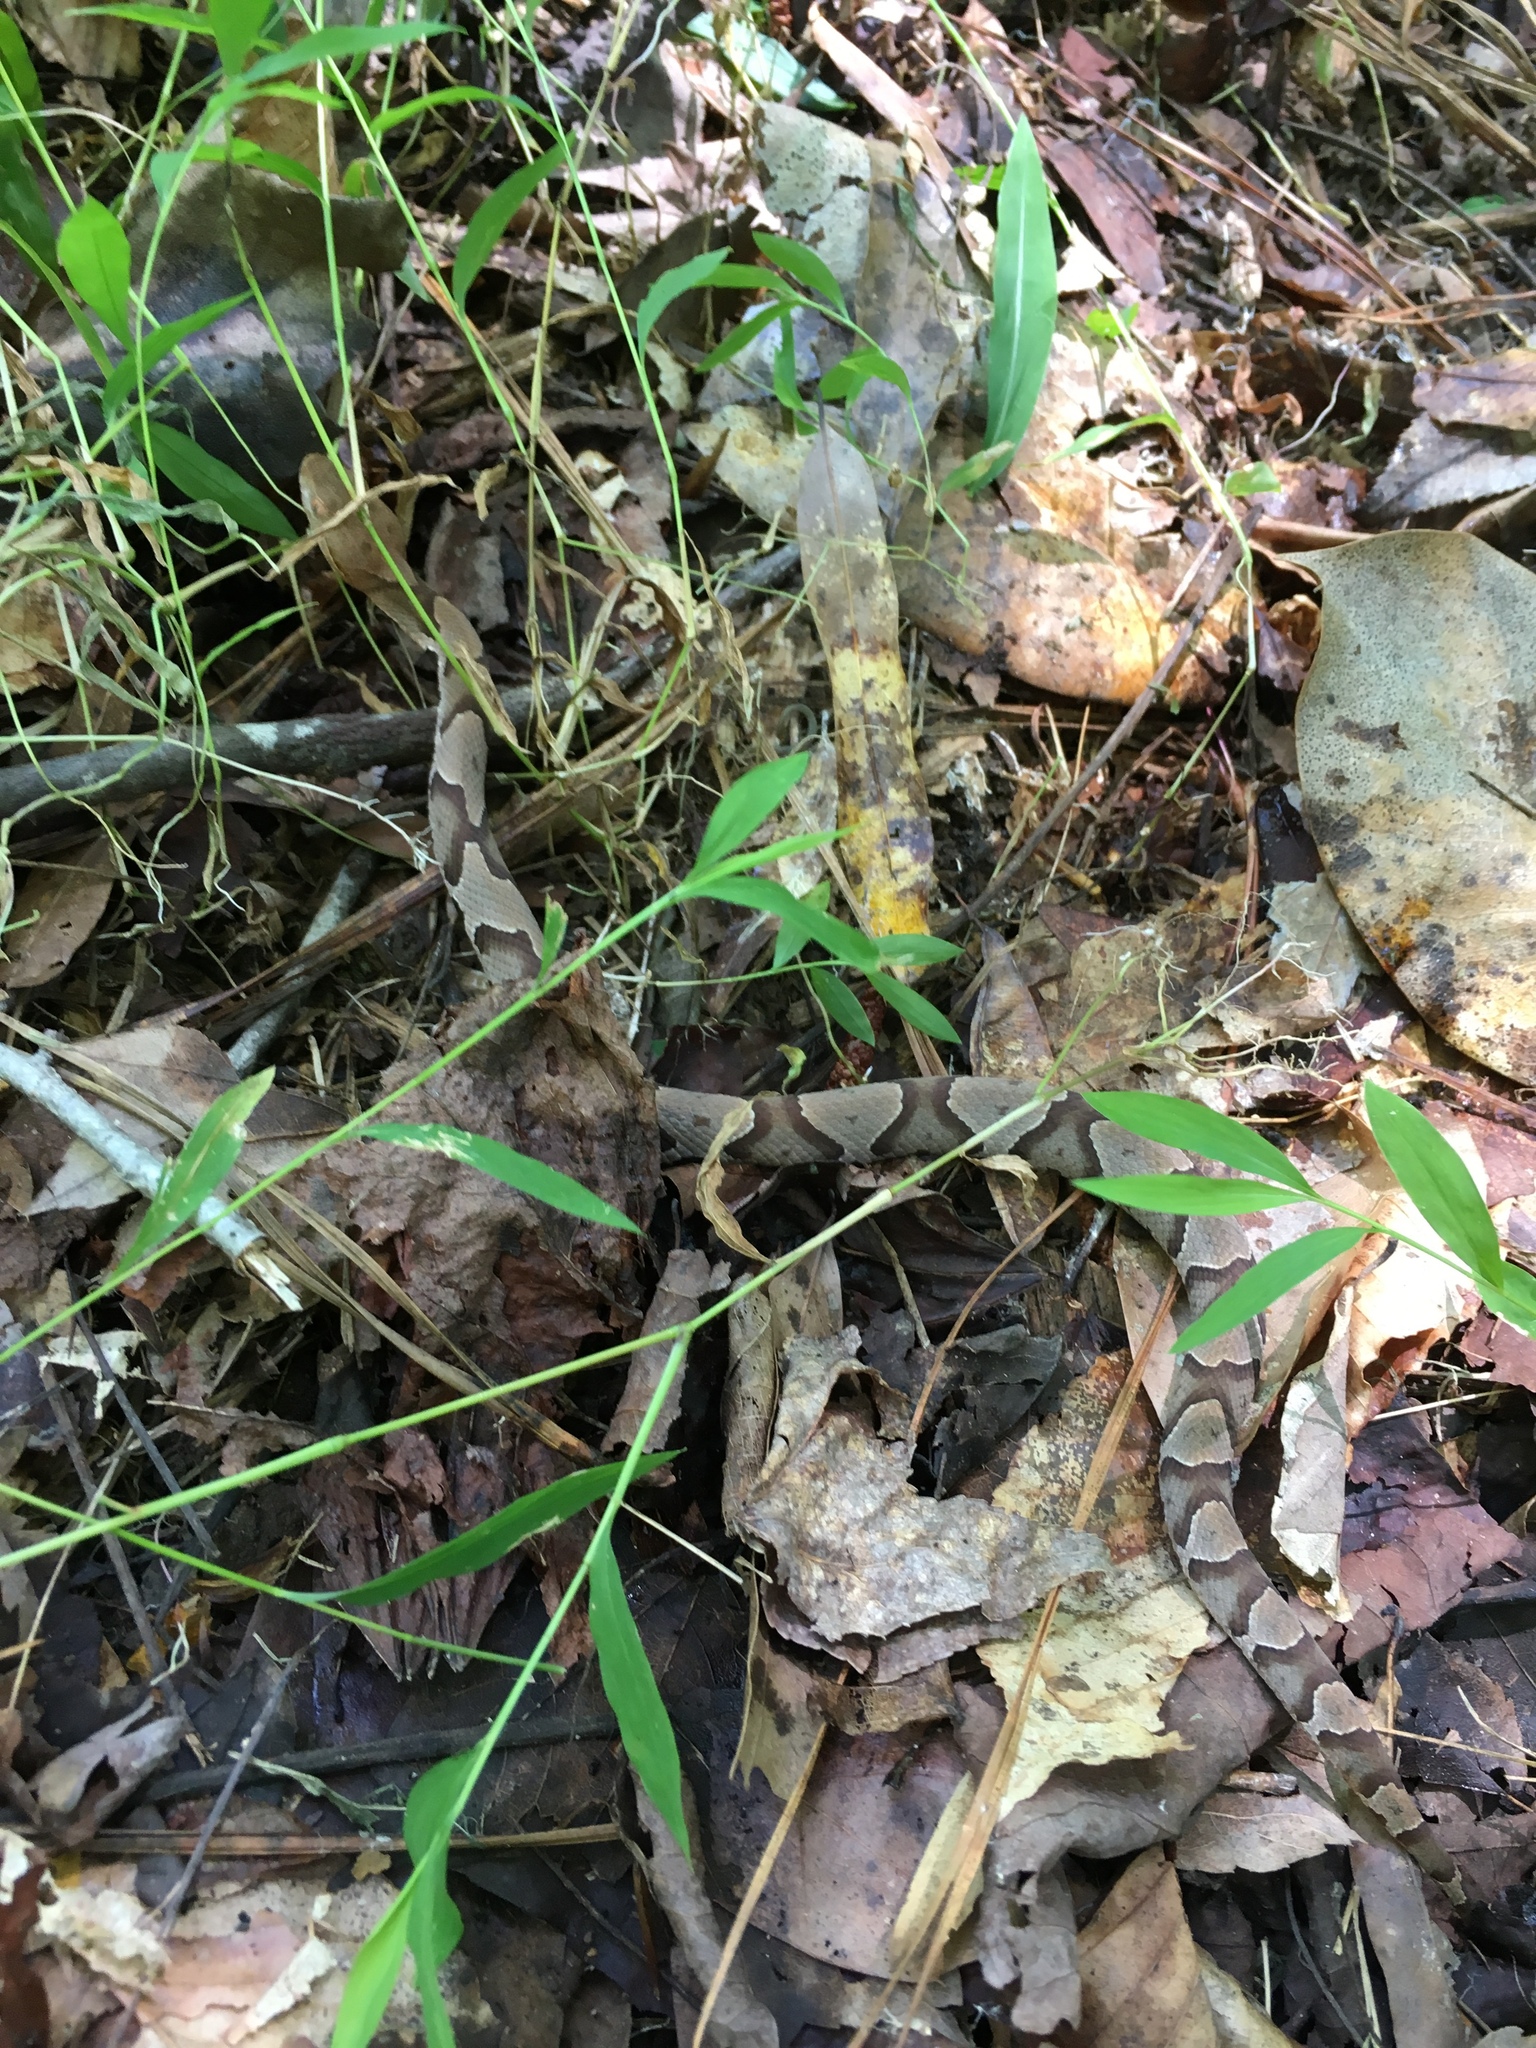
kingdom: Animalia
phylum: Chordata
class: Squamata
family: Viperidae
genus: Agkistrodon
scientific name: Agkistrodon contortrix
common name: Northern copperhead
